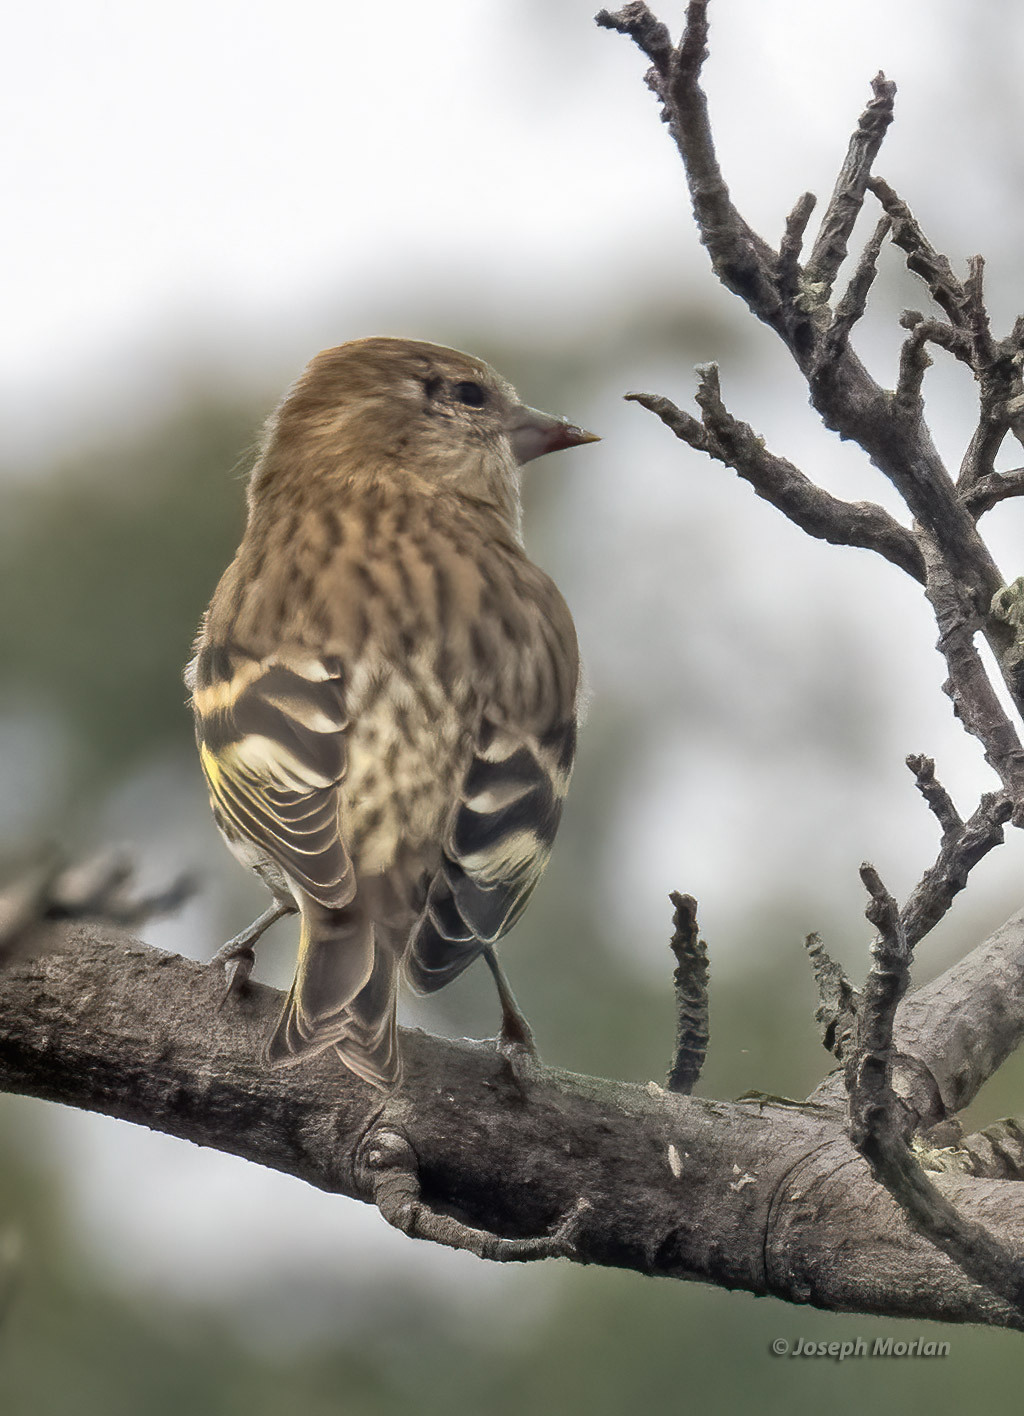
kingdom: Animalia
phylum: Chordata
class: Aves
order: Passeriformes
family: Fringillidae
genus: Spinus
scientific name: Spinus pinus
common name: Pine siskin
